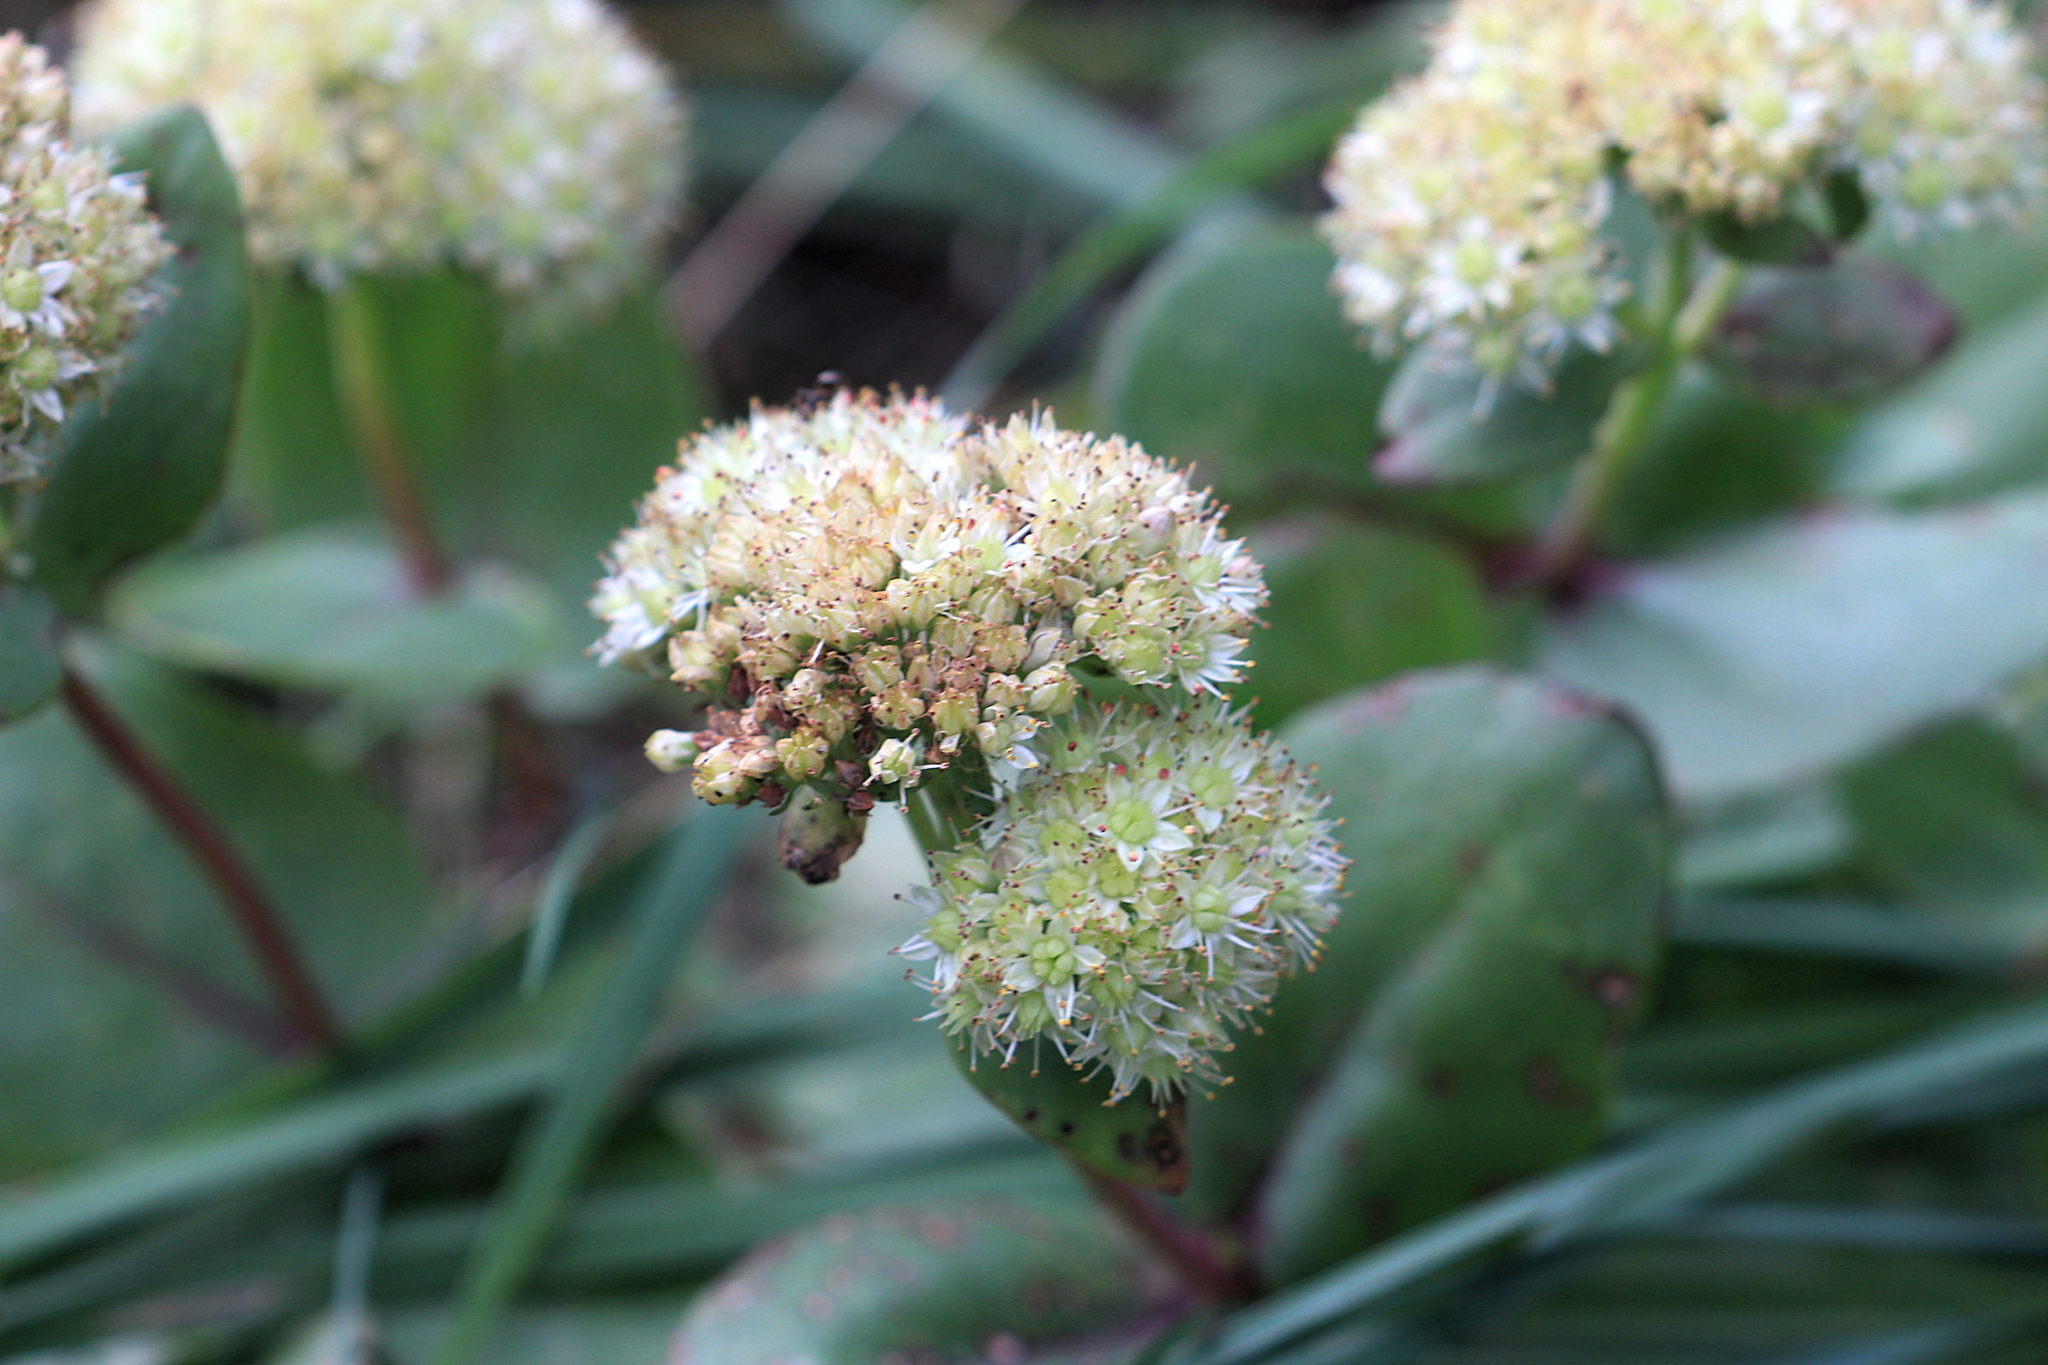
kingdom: Plantae
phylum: Tracheophyta
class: Magnoliopsida
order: Saxifragales
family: Crassulaceae
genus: Hylotelephium
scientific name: Hylotelephium maximum
